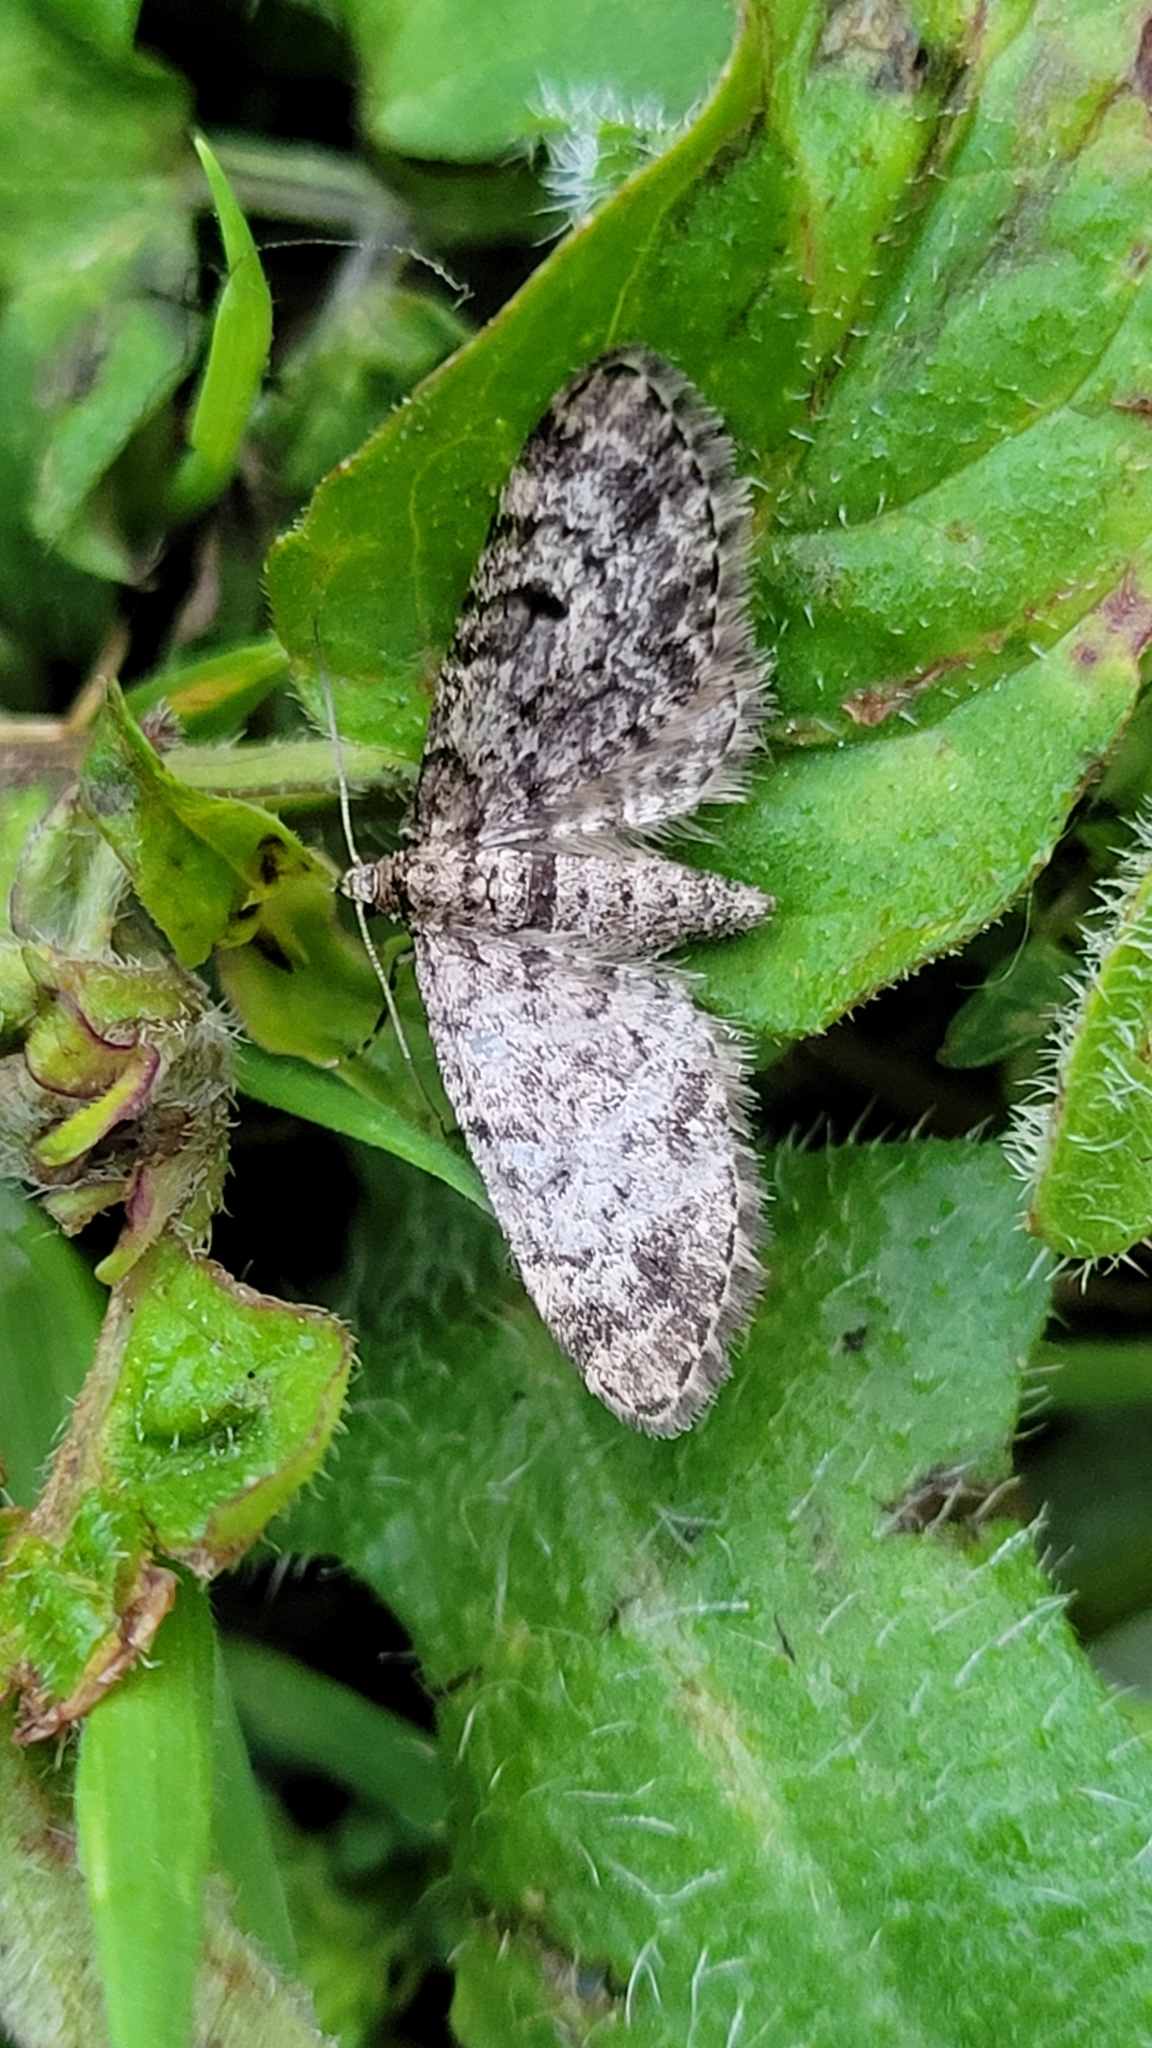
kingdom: Animalia
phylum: Arthropoda
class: Insecta
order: Lepidoptera
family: Geometridae
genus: Eupithecia
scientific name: Eupithecia tantillaria
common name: Dwarf pug
